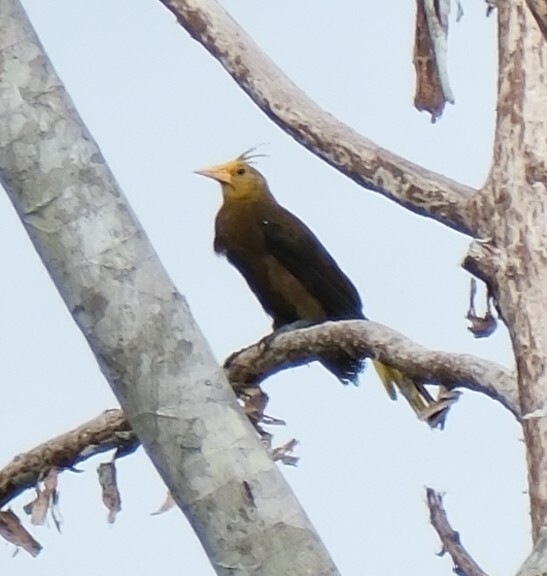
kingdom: Animalia
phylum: Chordata
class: Aves
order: Passeriformes
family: Icteridae
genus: Psarocolius
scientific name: Psarocolius angustifrons
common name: Russet-backed oropendola
